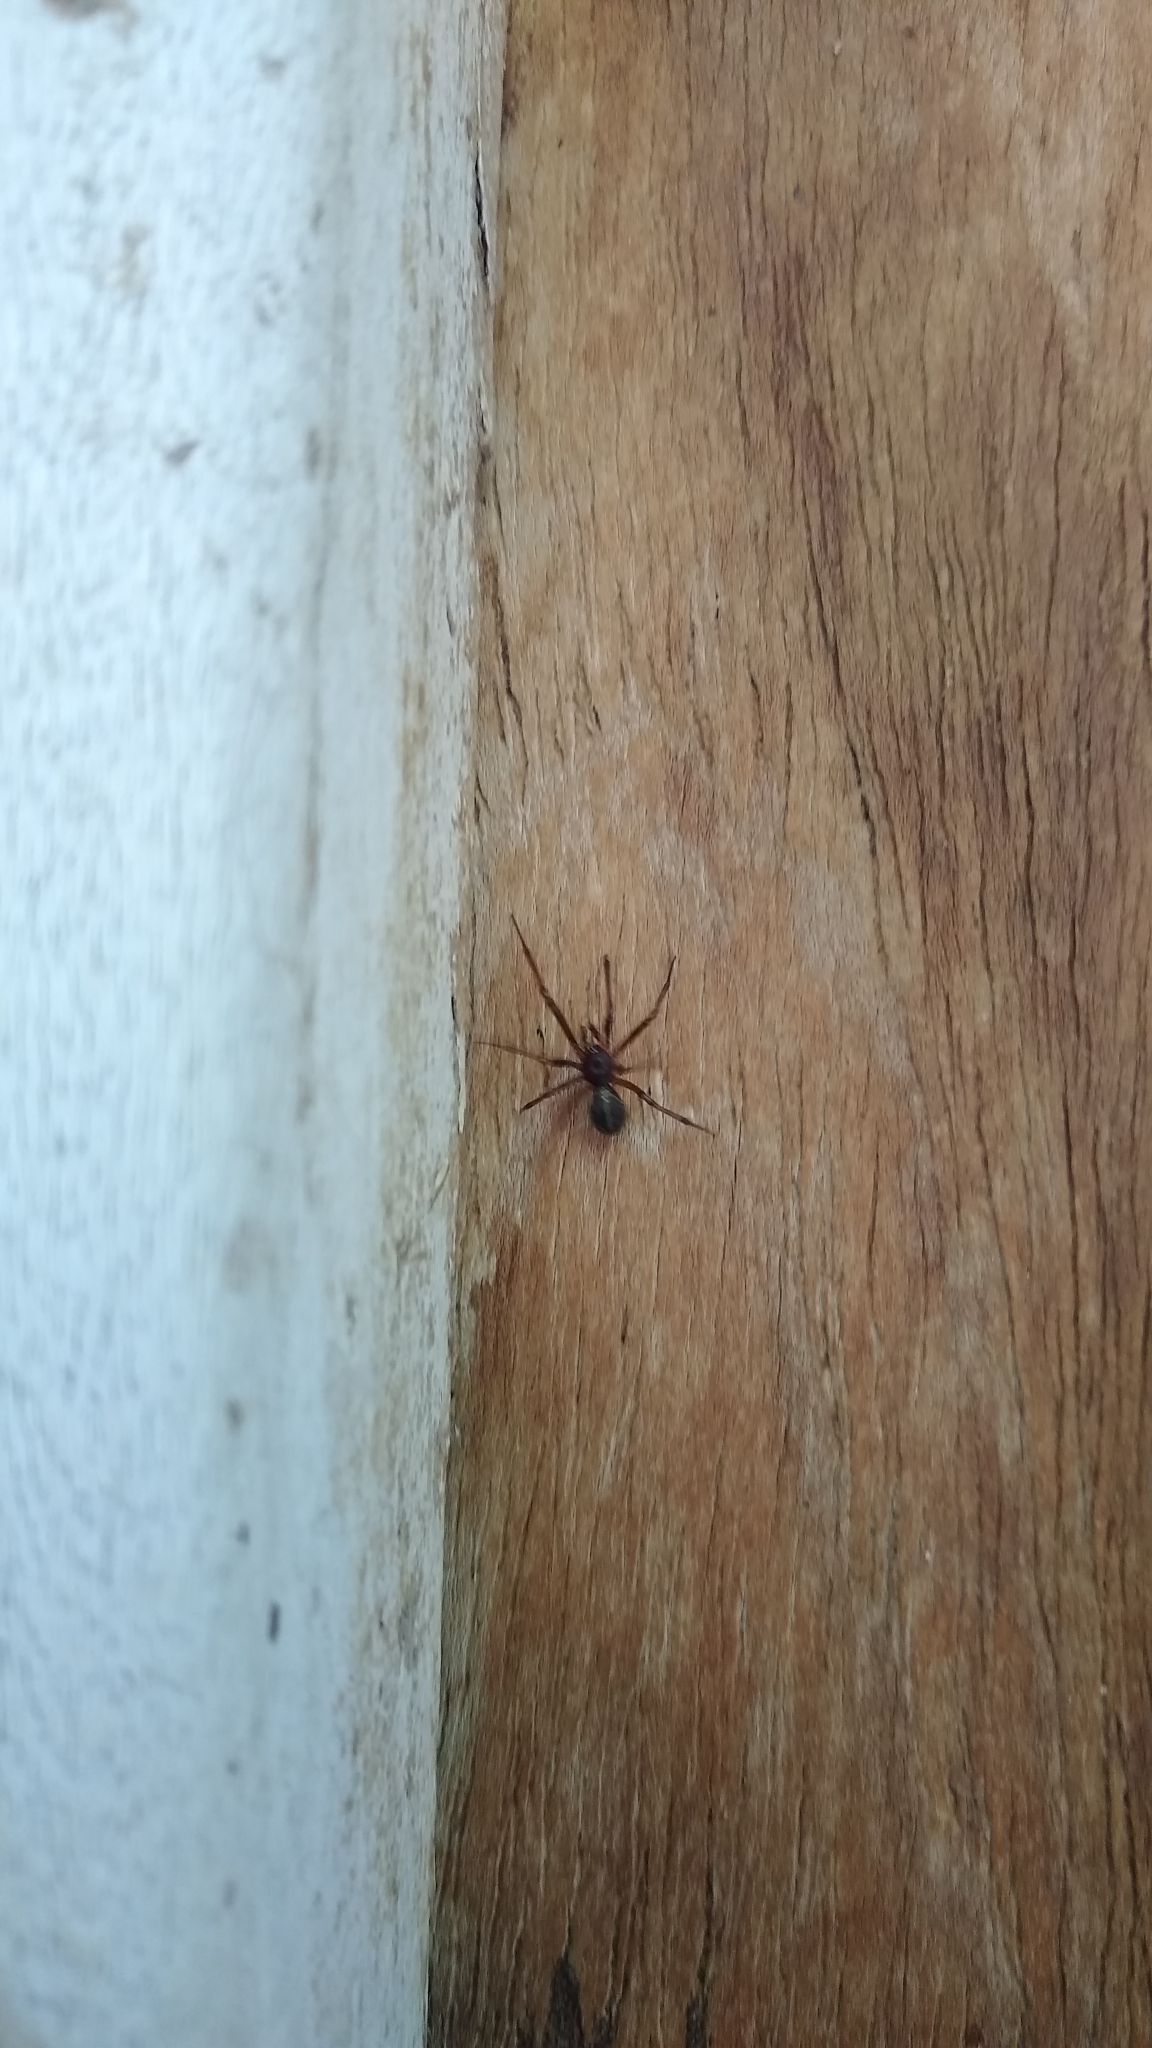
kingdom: Animalia
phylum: Arthropoda
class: Arachnida
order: Araneae
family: Theridiidae
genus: Steatoda
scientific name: Steatoda sabulosa
